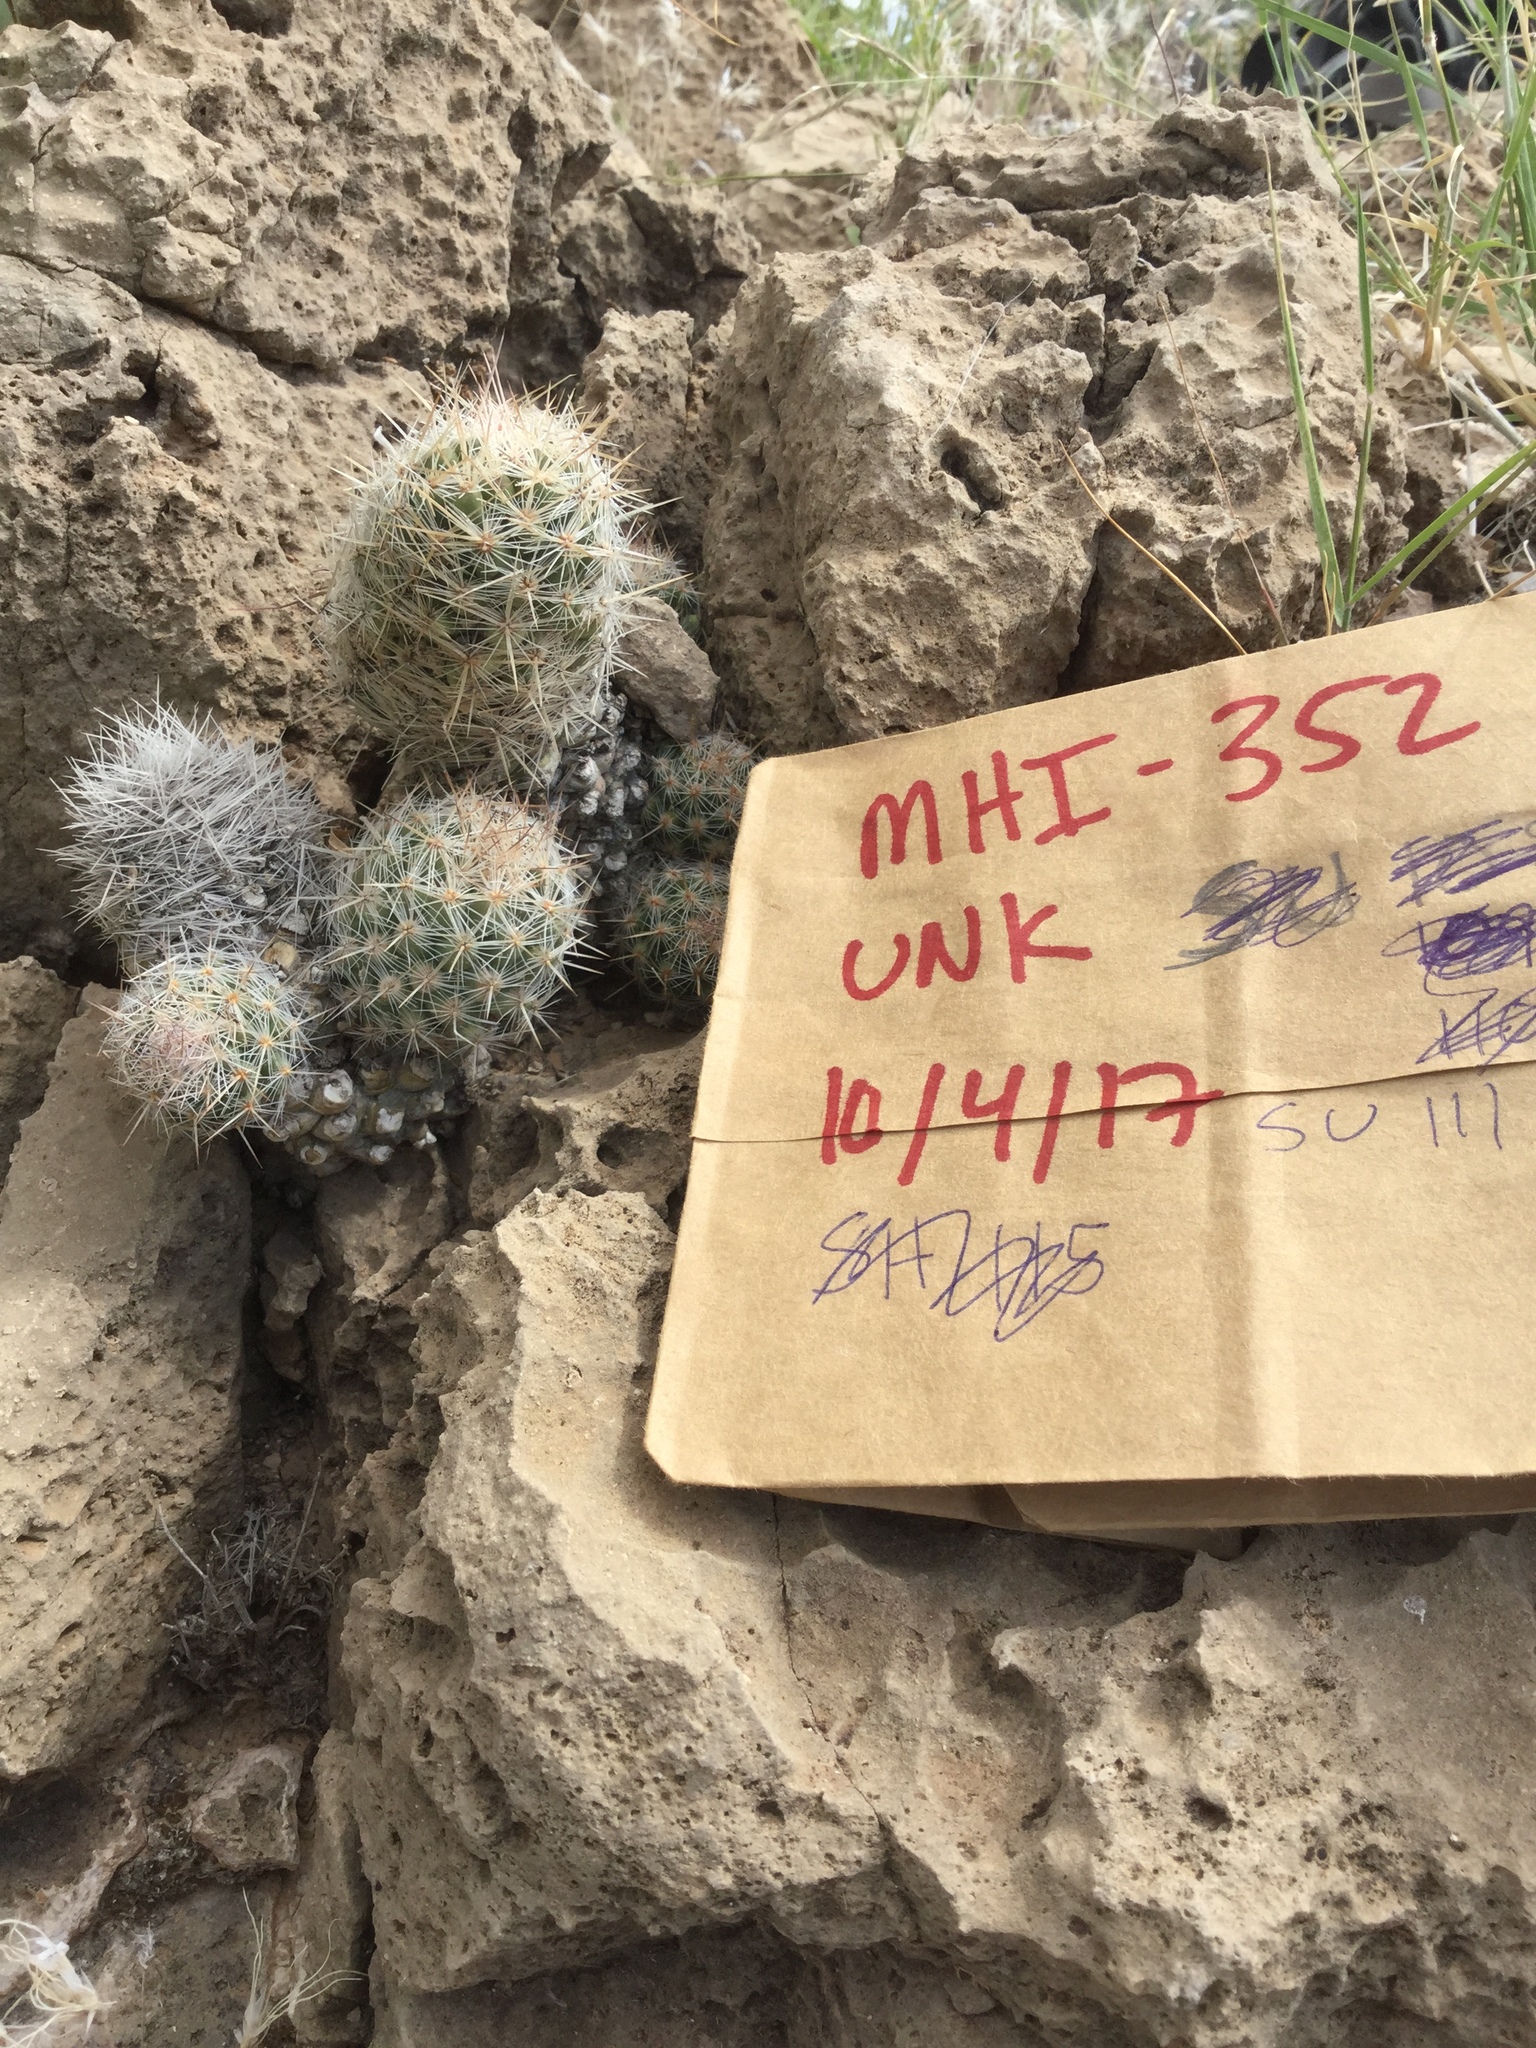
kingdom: Plantae
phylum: Tracheophyta
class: Magnoliopsida
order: Caryophyllales
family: Cactaceae
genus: Pelecyphora
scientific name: Pelecyphora tuberculosa
